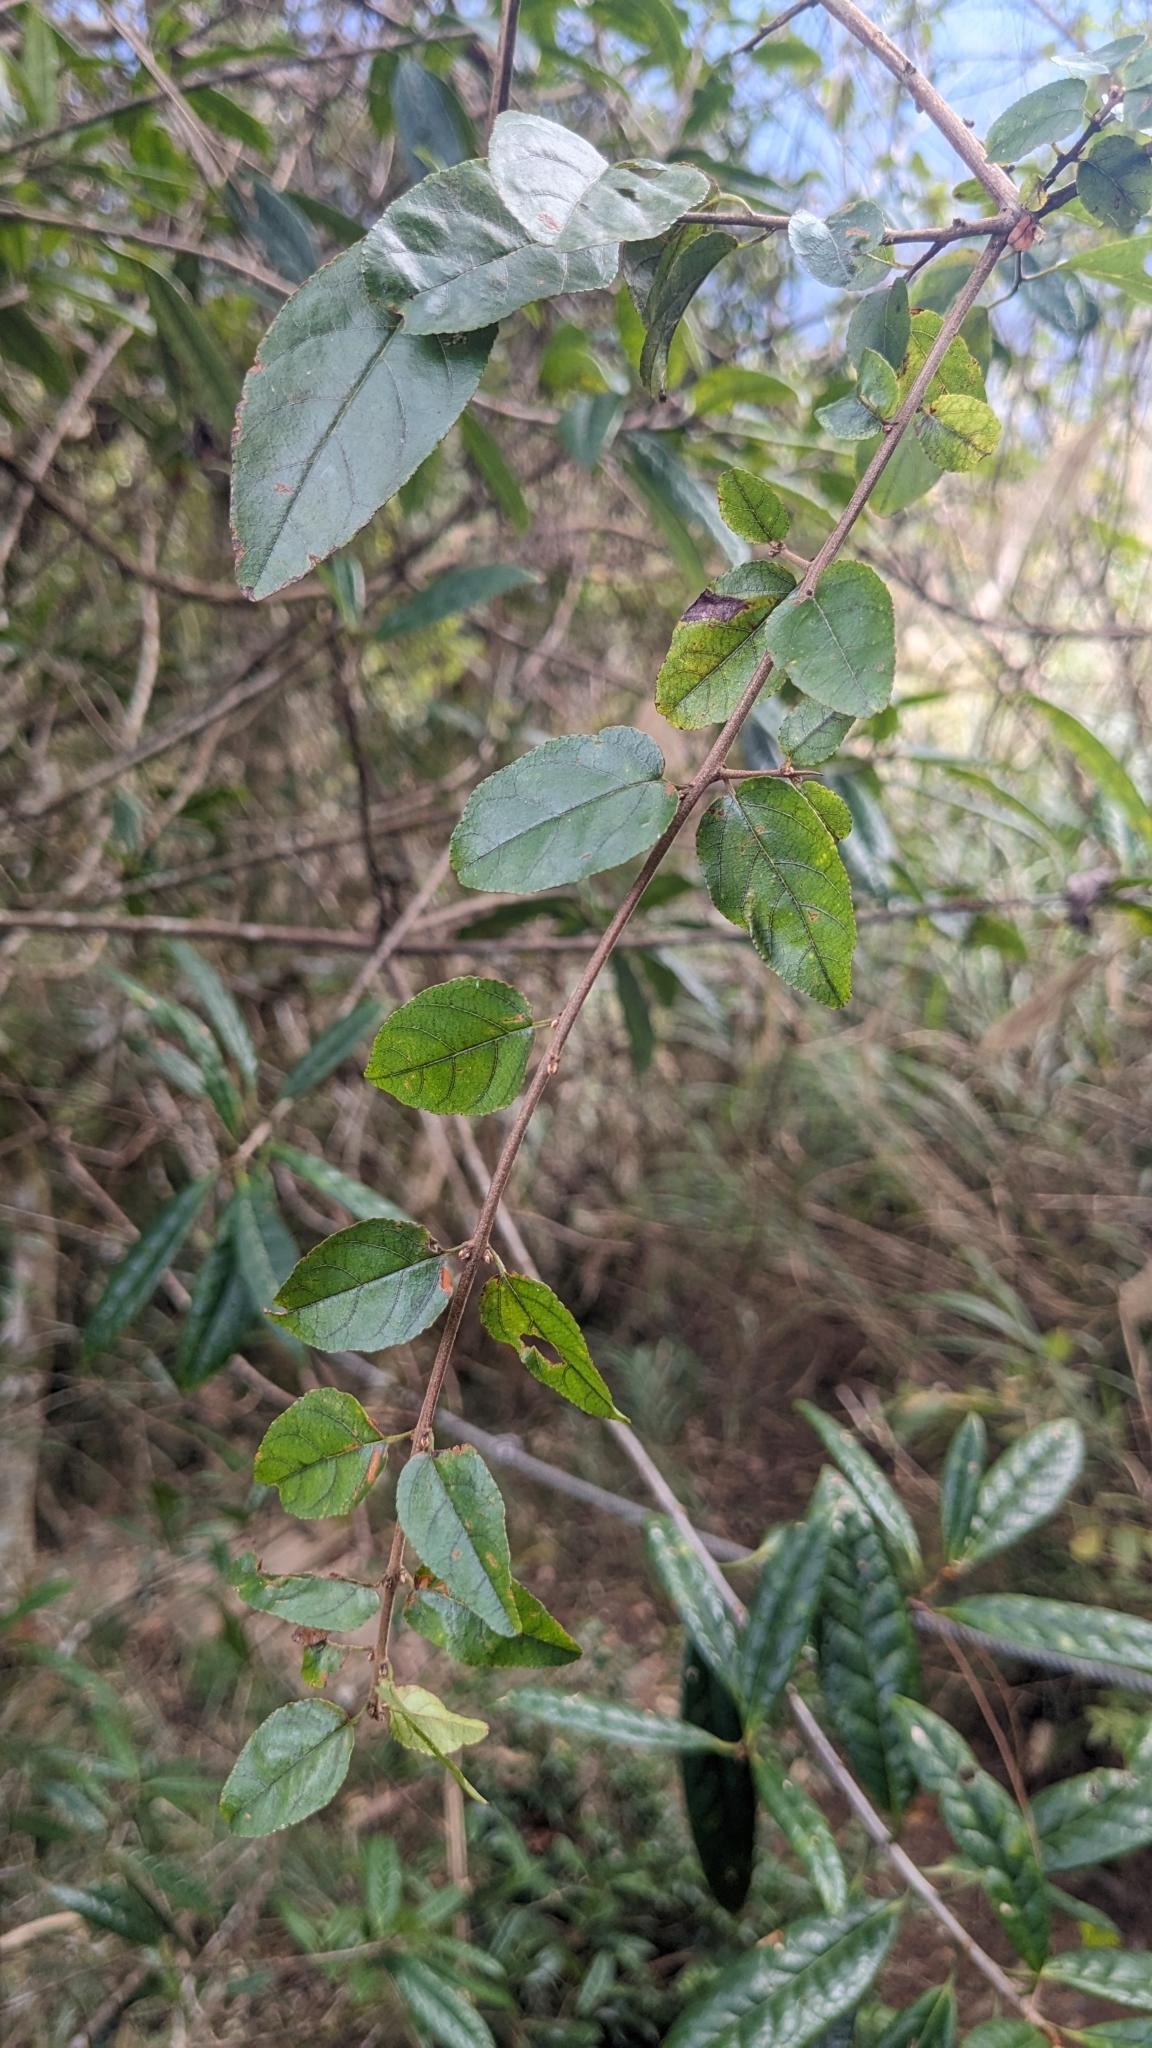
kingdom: Plantae
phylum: Tracheophyta
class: Magnoliopsida
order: Rosales
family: Rhamnaceae
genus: Sageretia
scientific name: Sageretia thea
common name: Pauper's-tea
